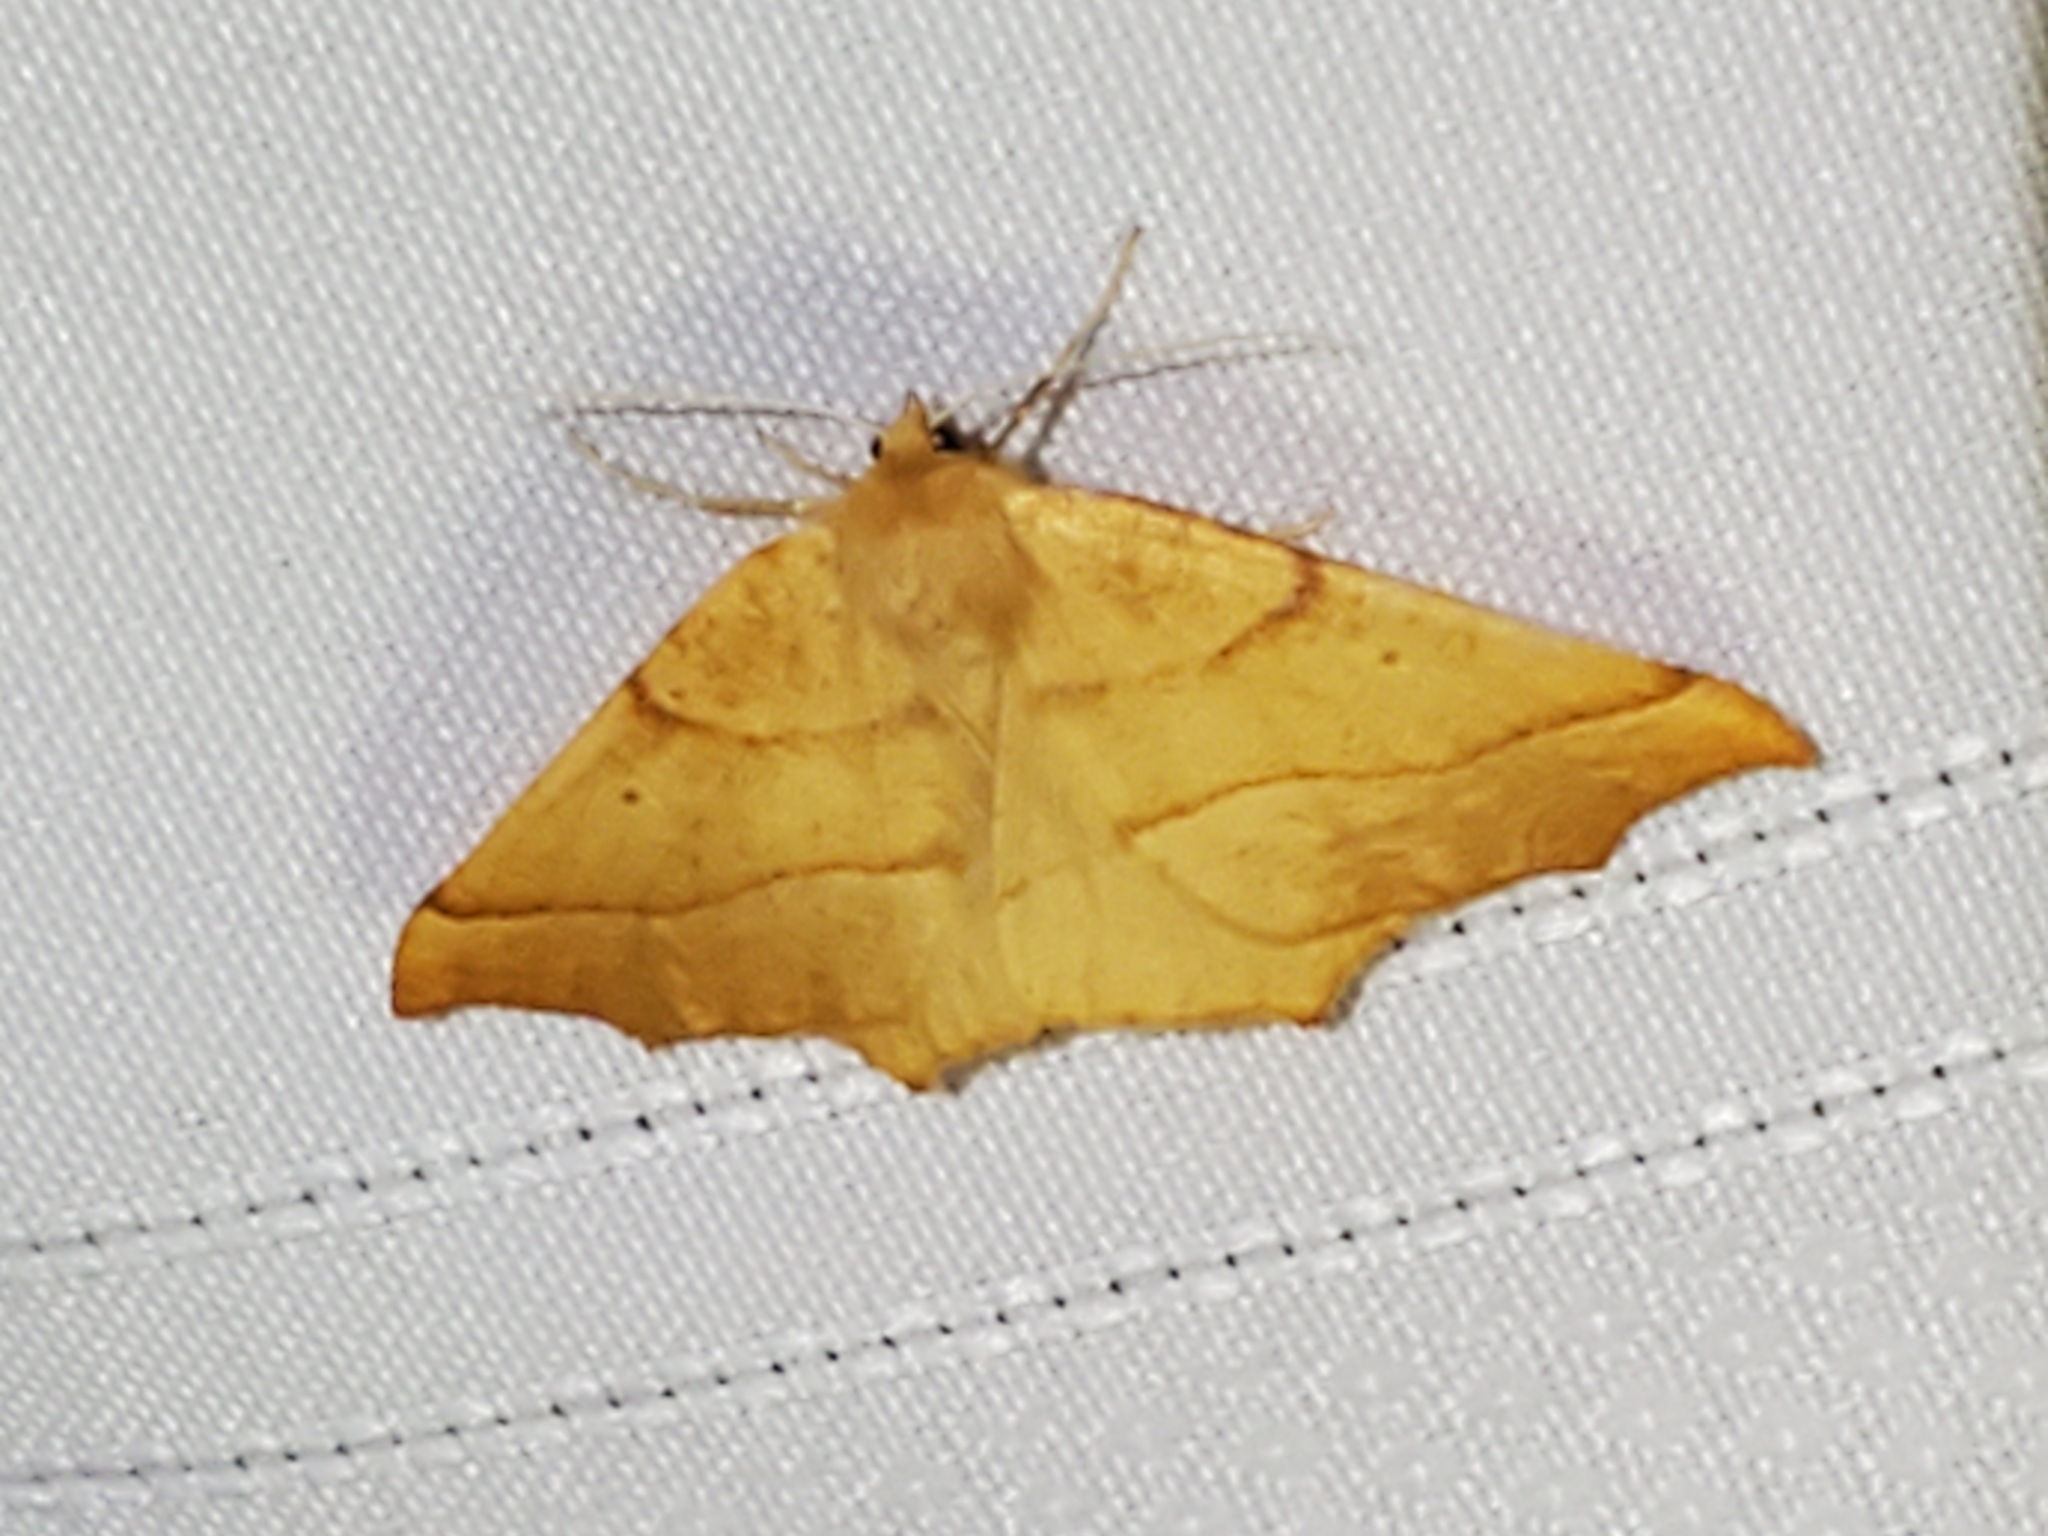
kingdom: Animalia
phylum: Arthropoda
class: Insecta
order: Lepidoptera
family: Geometridae
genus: Synaxis
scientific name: Synaxis jubararia
